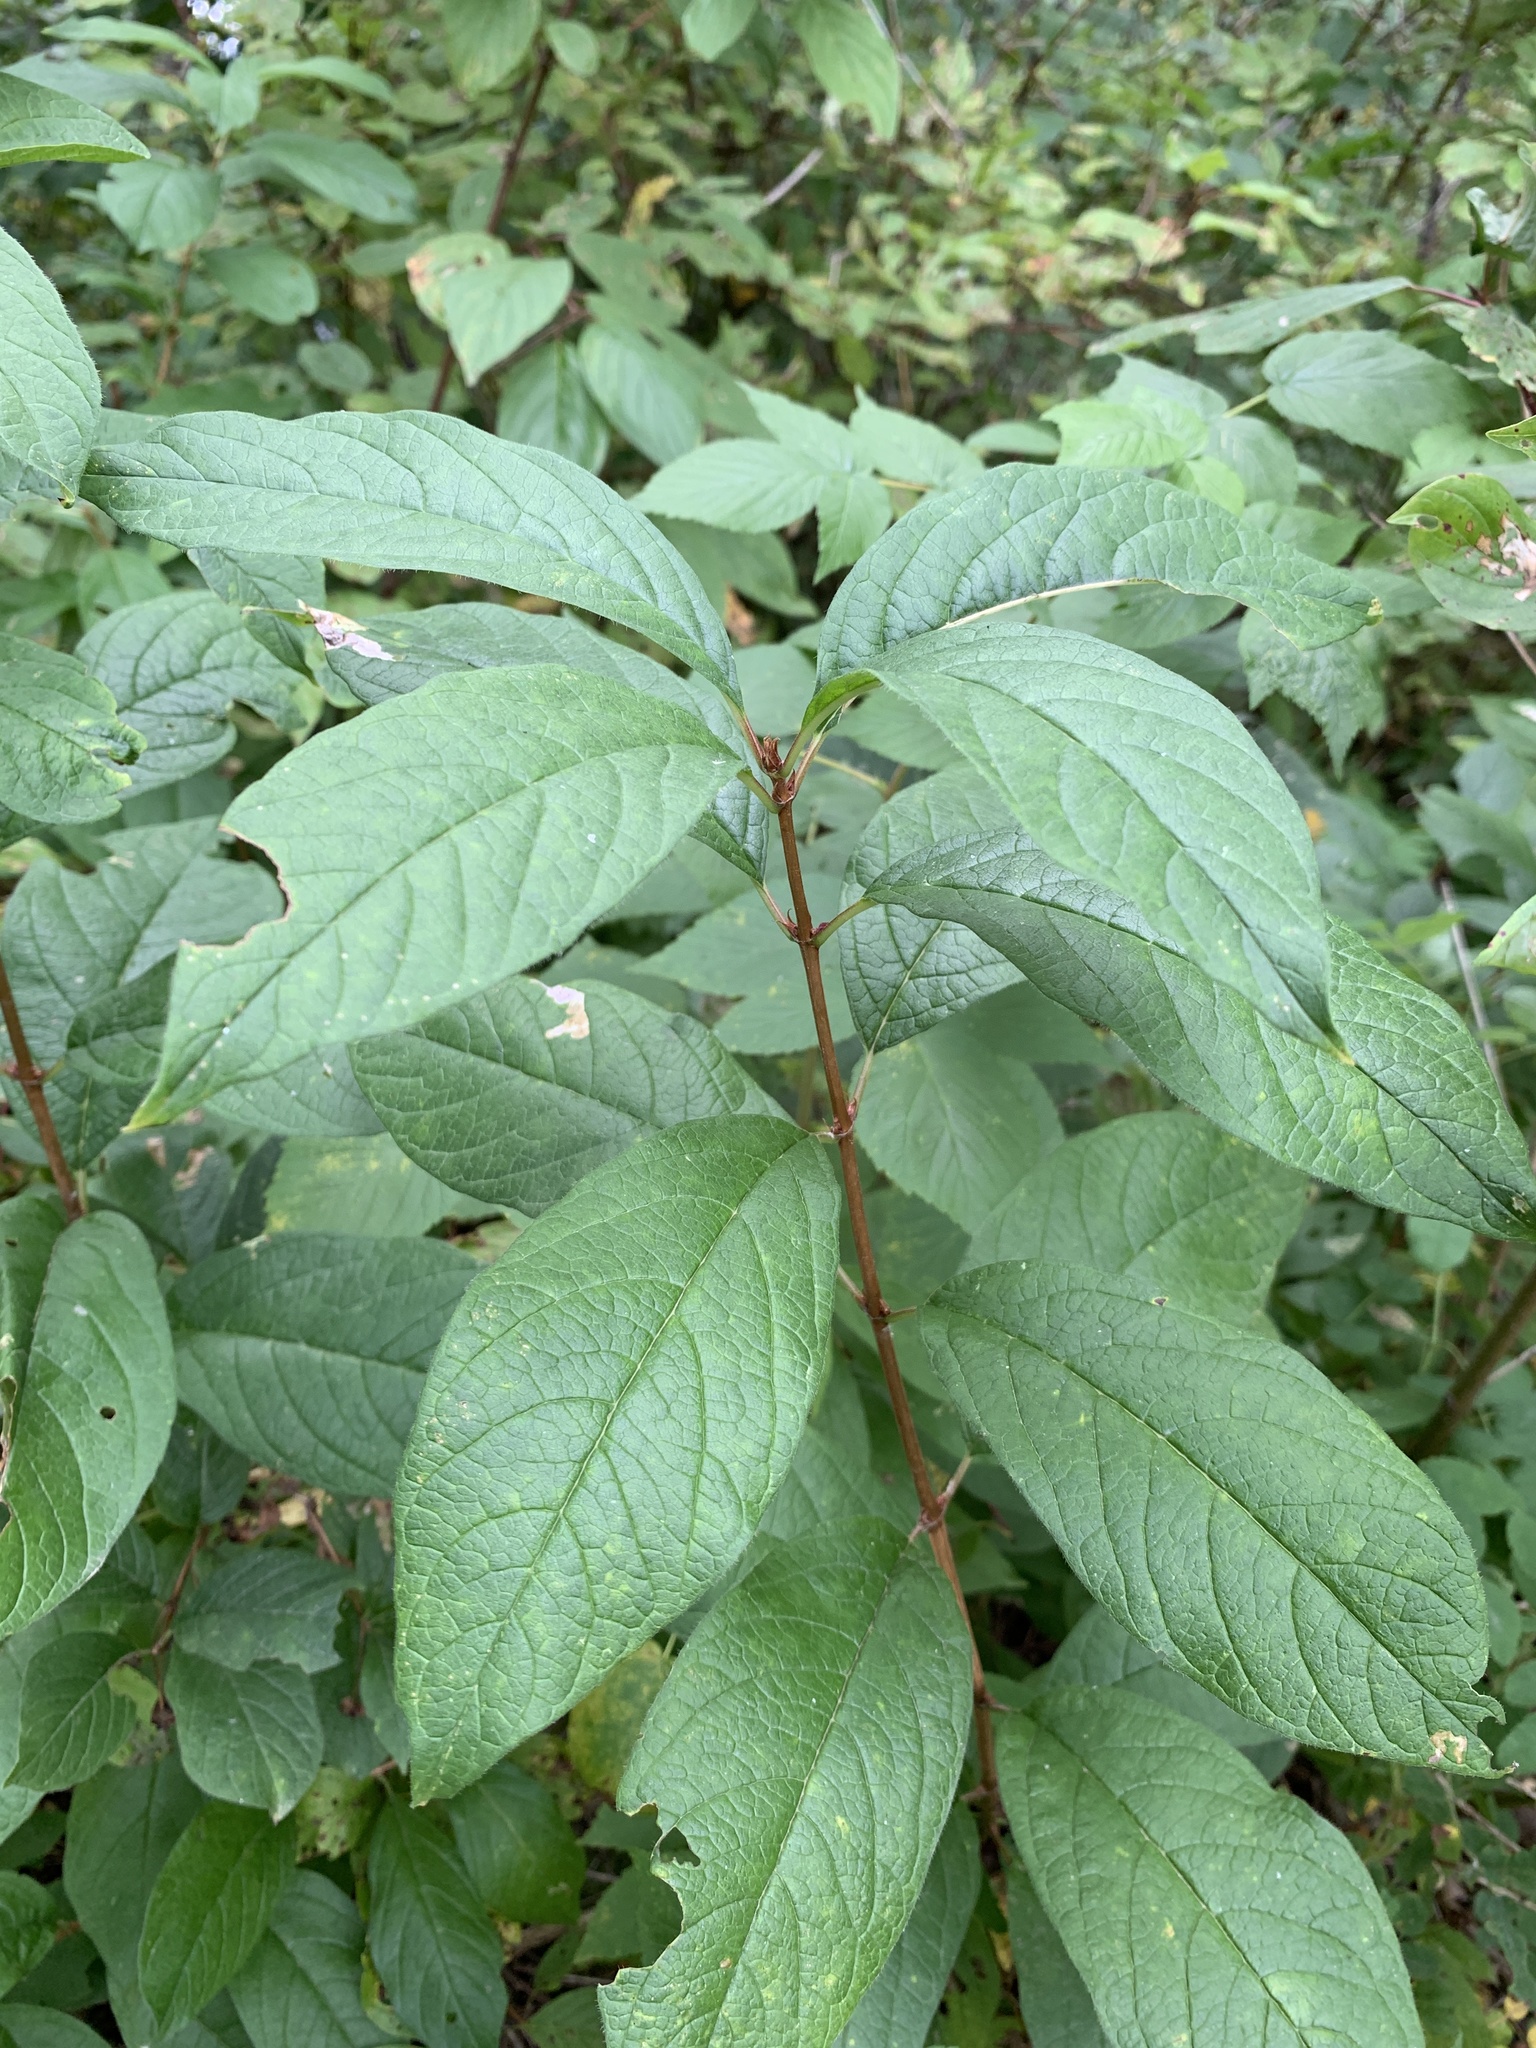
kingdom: Plantae
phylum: Tracheophyta
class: Magnoliopsida
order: Cornales
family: Cornaceae
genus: Cornus
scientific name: Cornus sericea
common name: Red-osier dogwood
